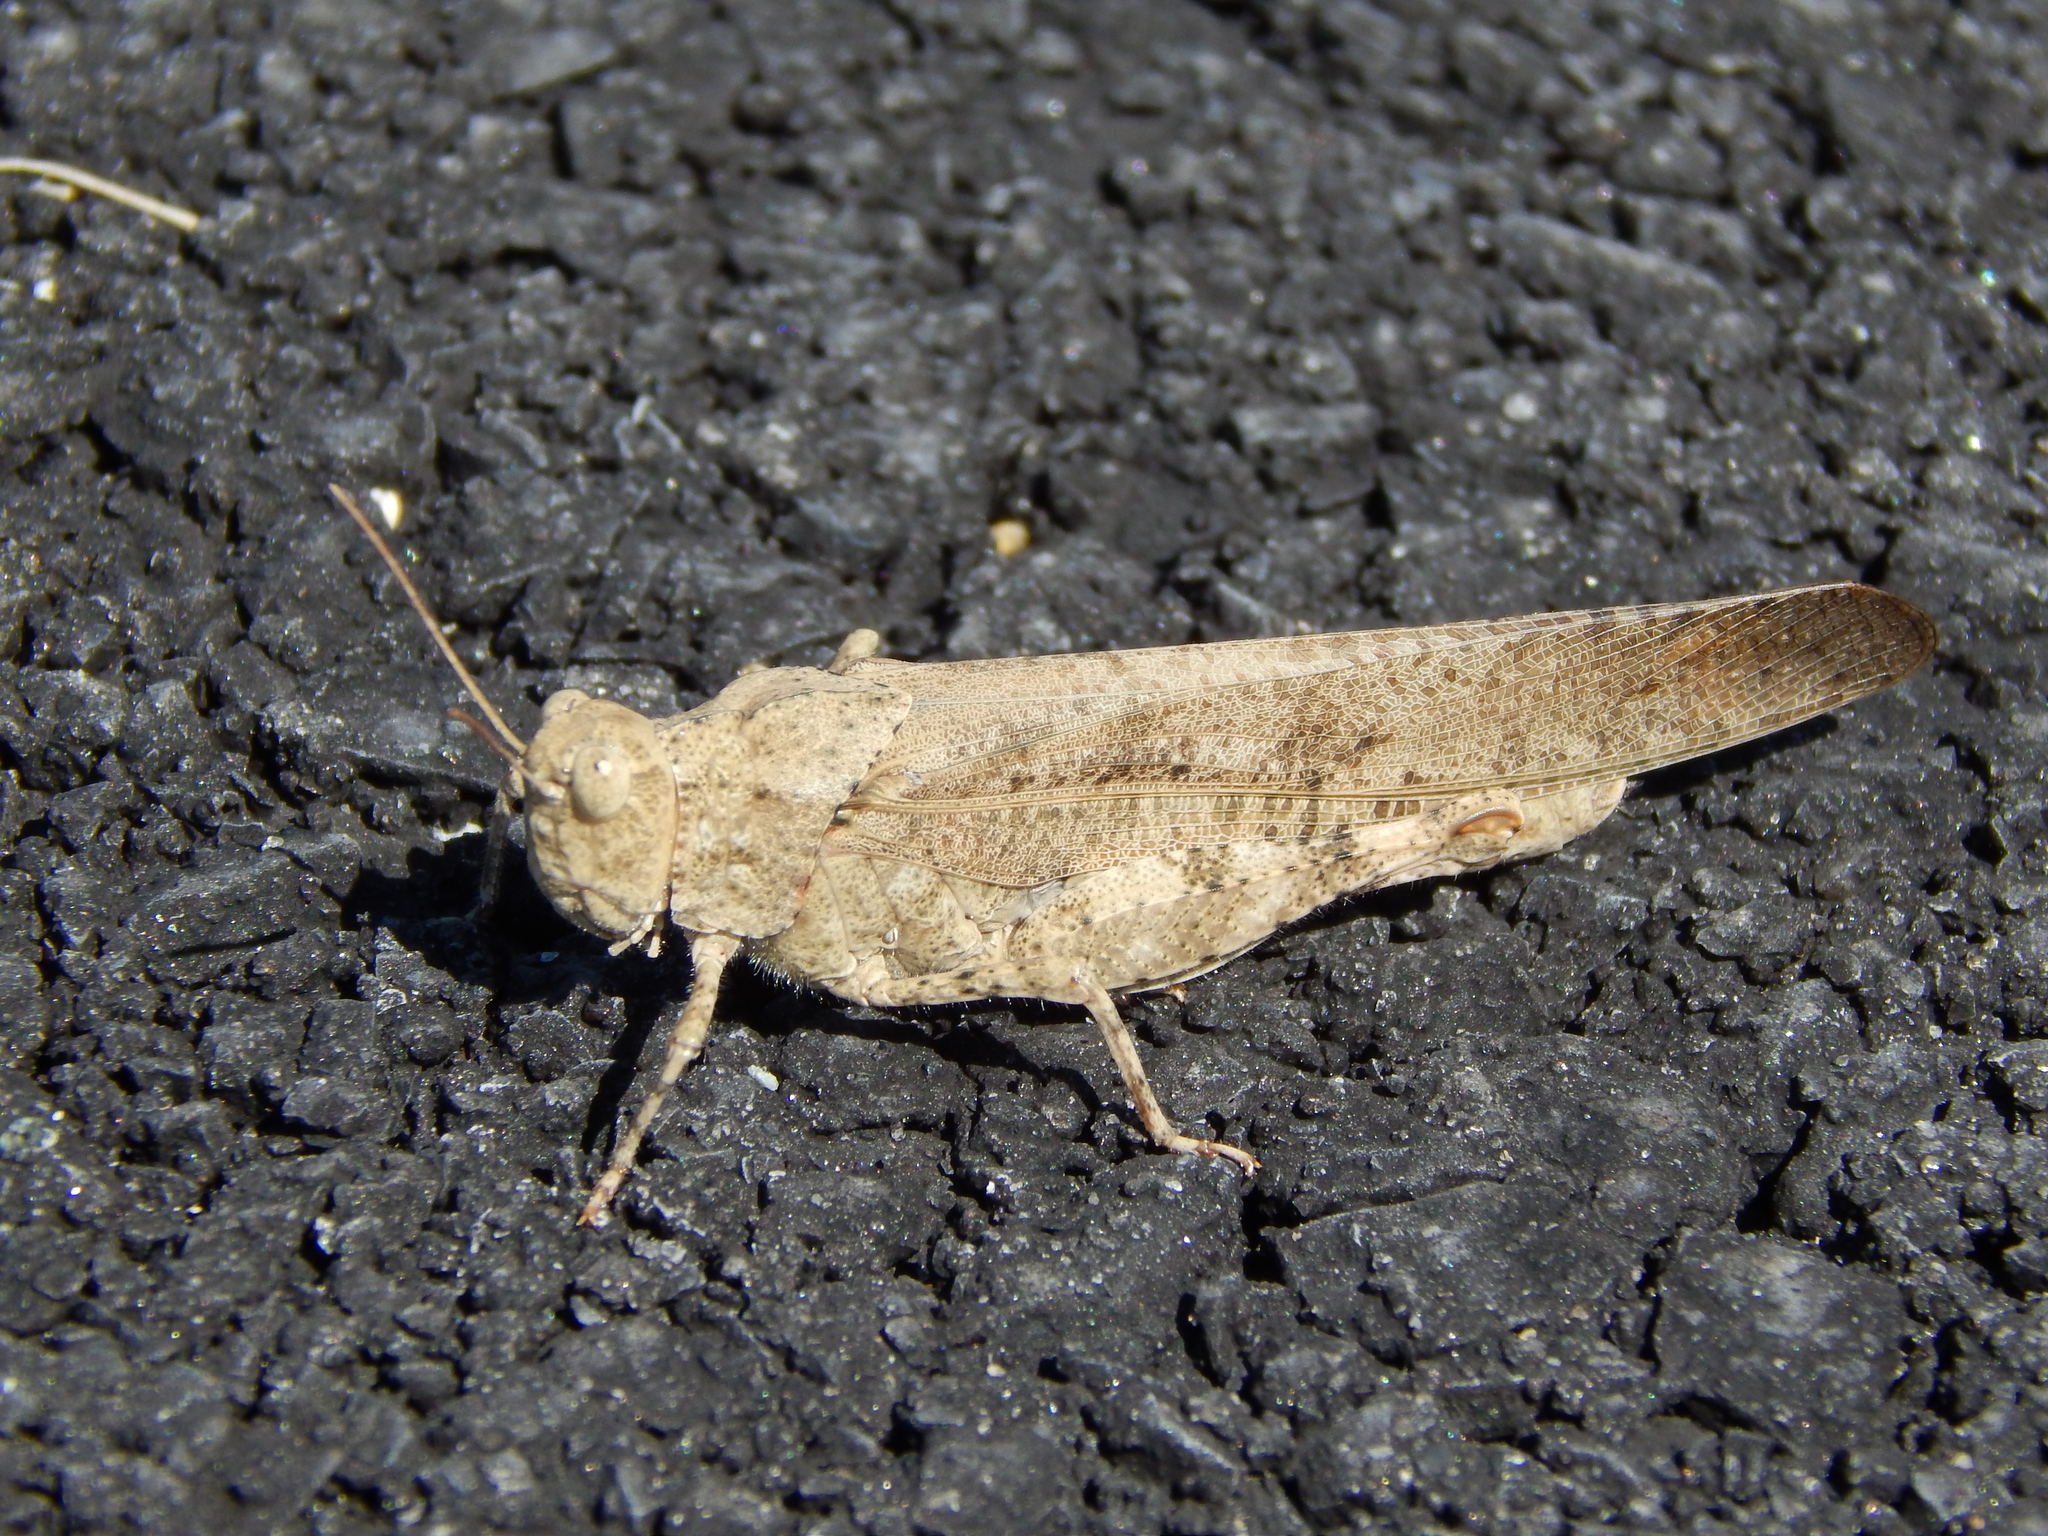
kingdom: Animalia
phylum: Arthropoda
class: Insecta
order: Orthoptera
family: Acrididae
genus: Dissosteira
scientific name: Dissosteira carolina
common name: Carolina grasshopper
